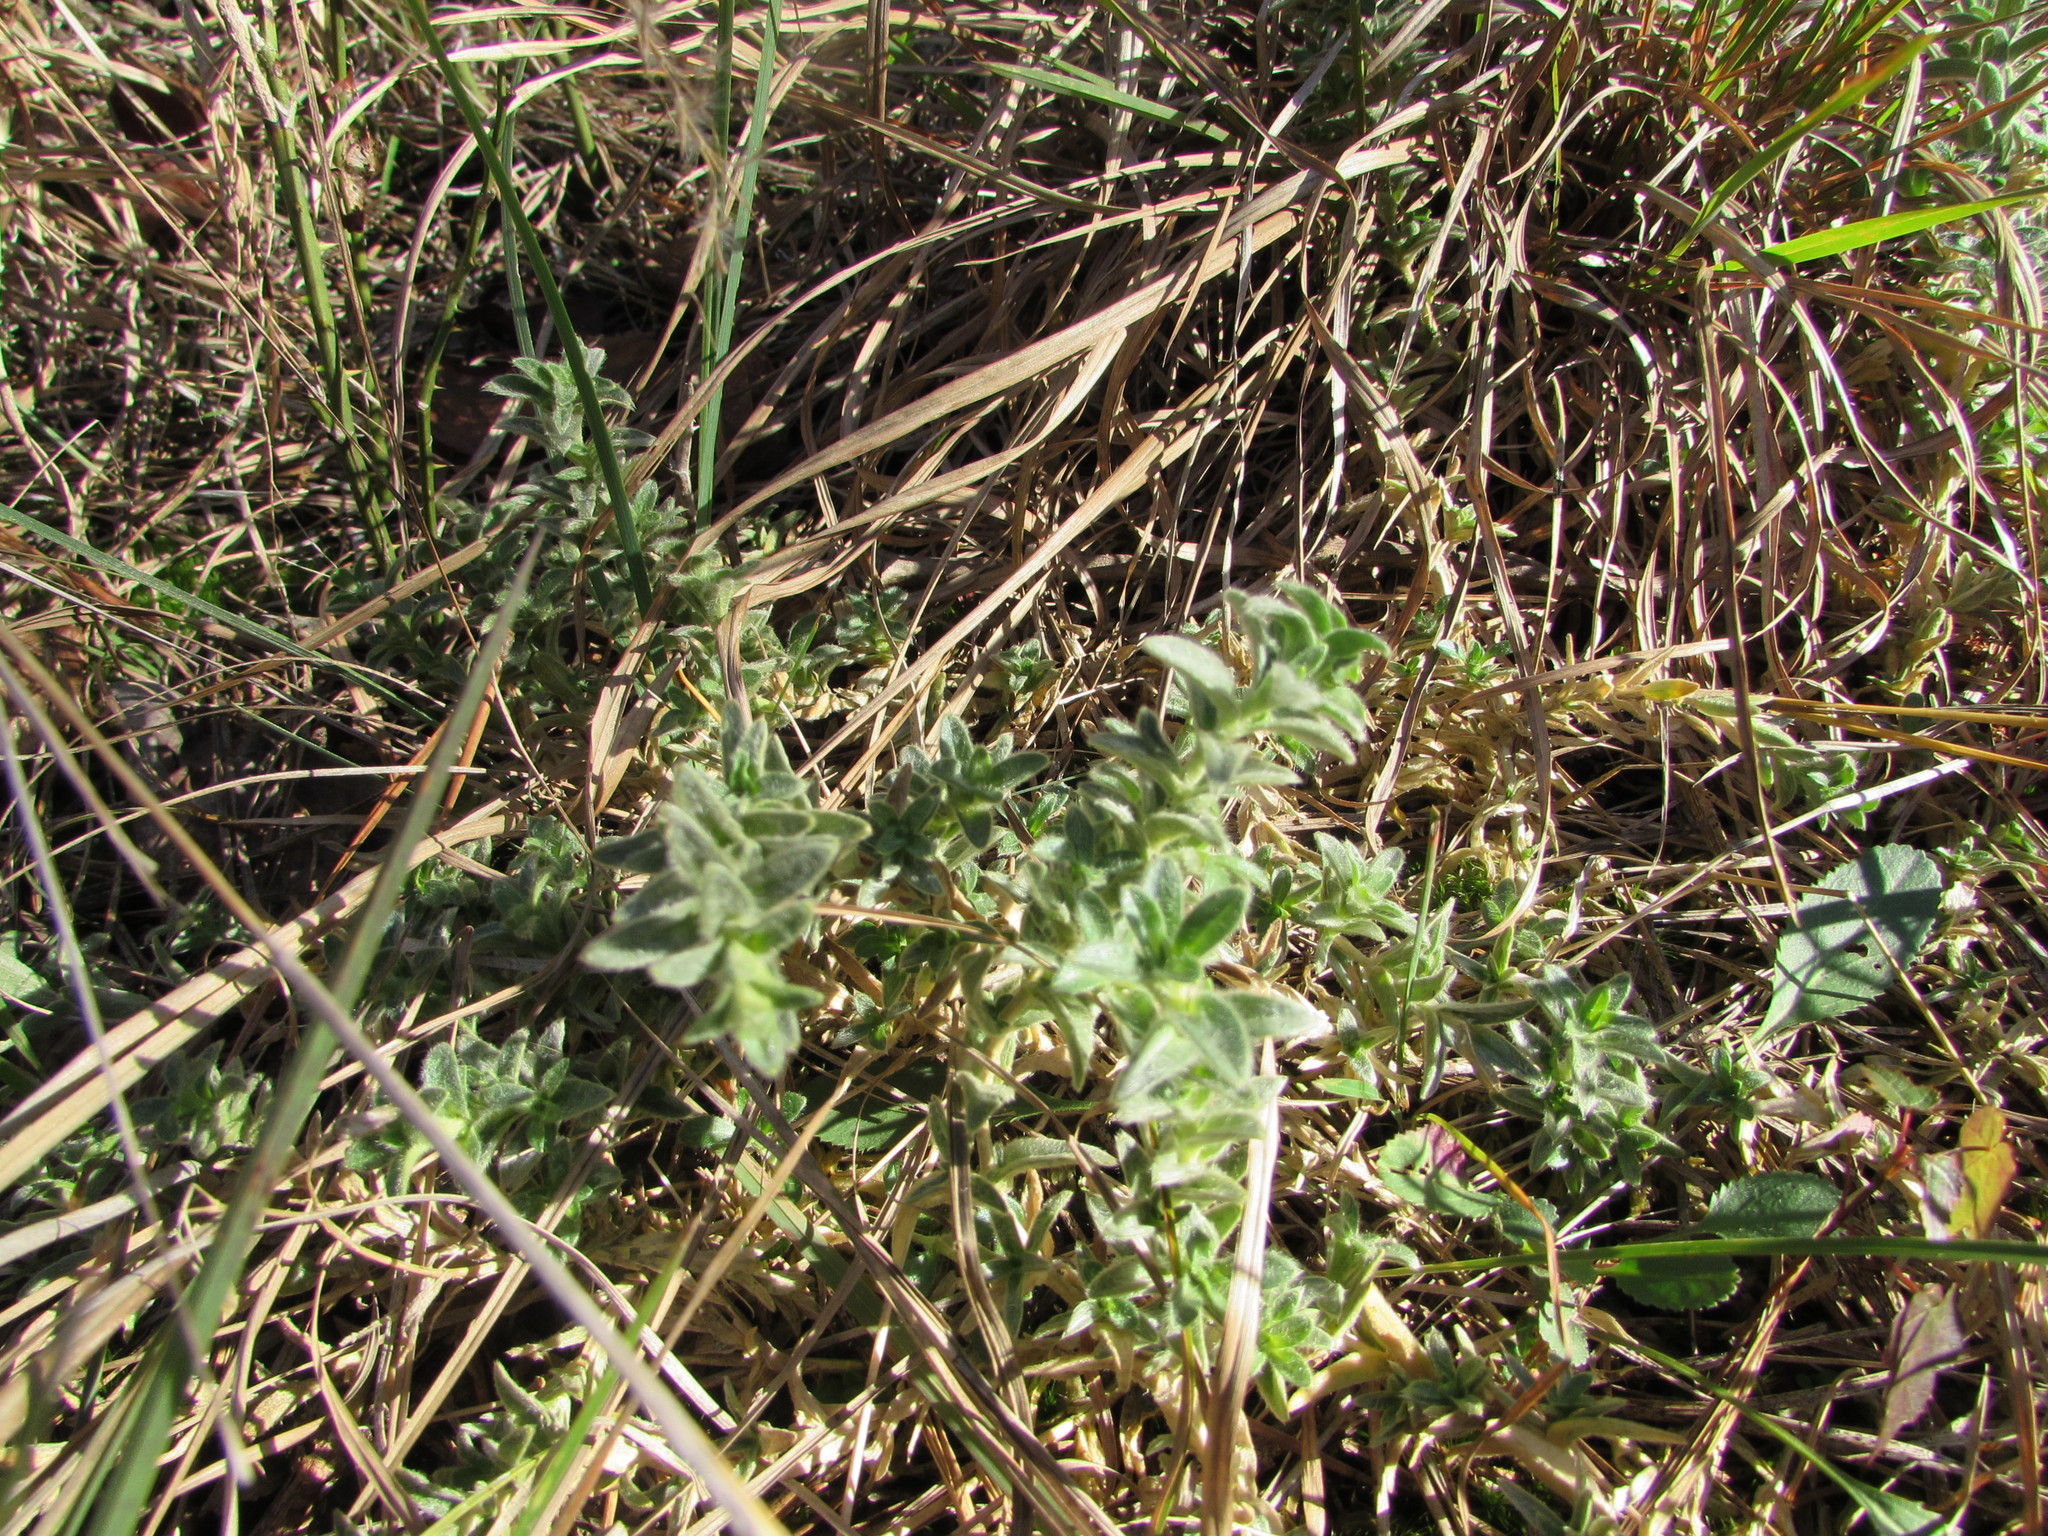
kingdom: Plantae
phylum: Tracheophyta
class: Magnoliopsida
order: Caryophyllales
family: Caryophyllaceae
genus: Cerastium
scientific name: Cerastium velutinum
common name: Barren chickweed
